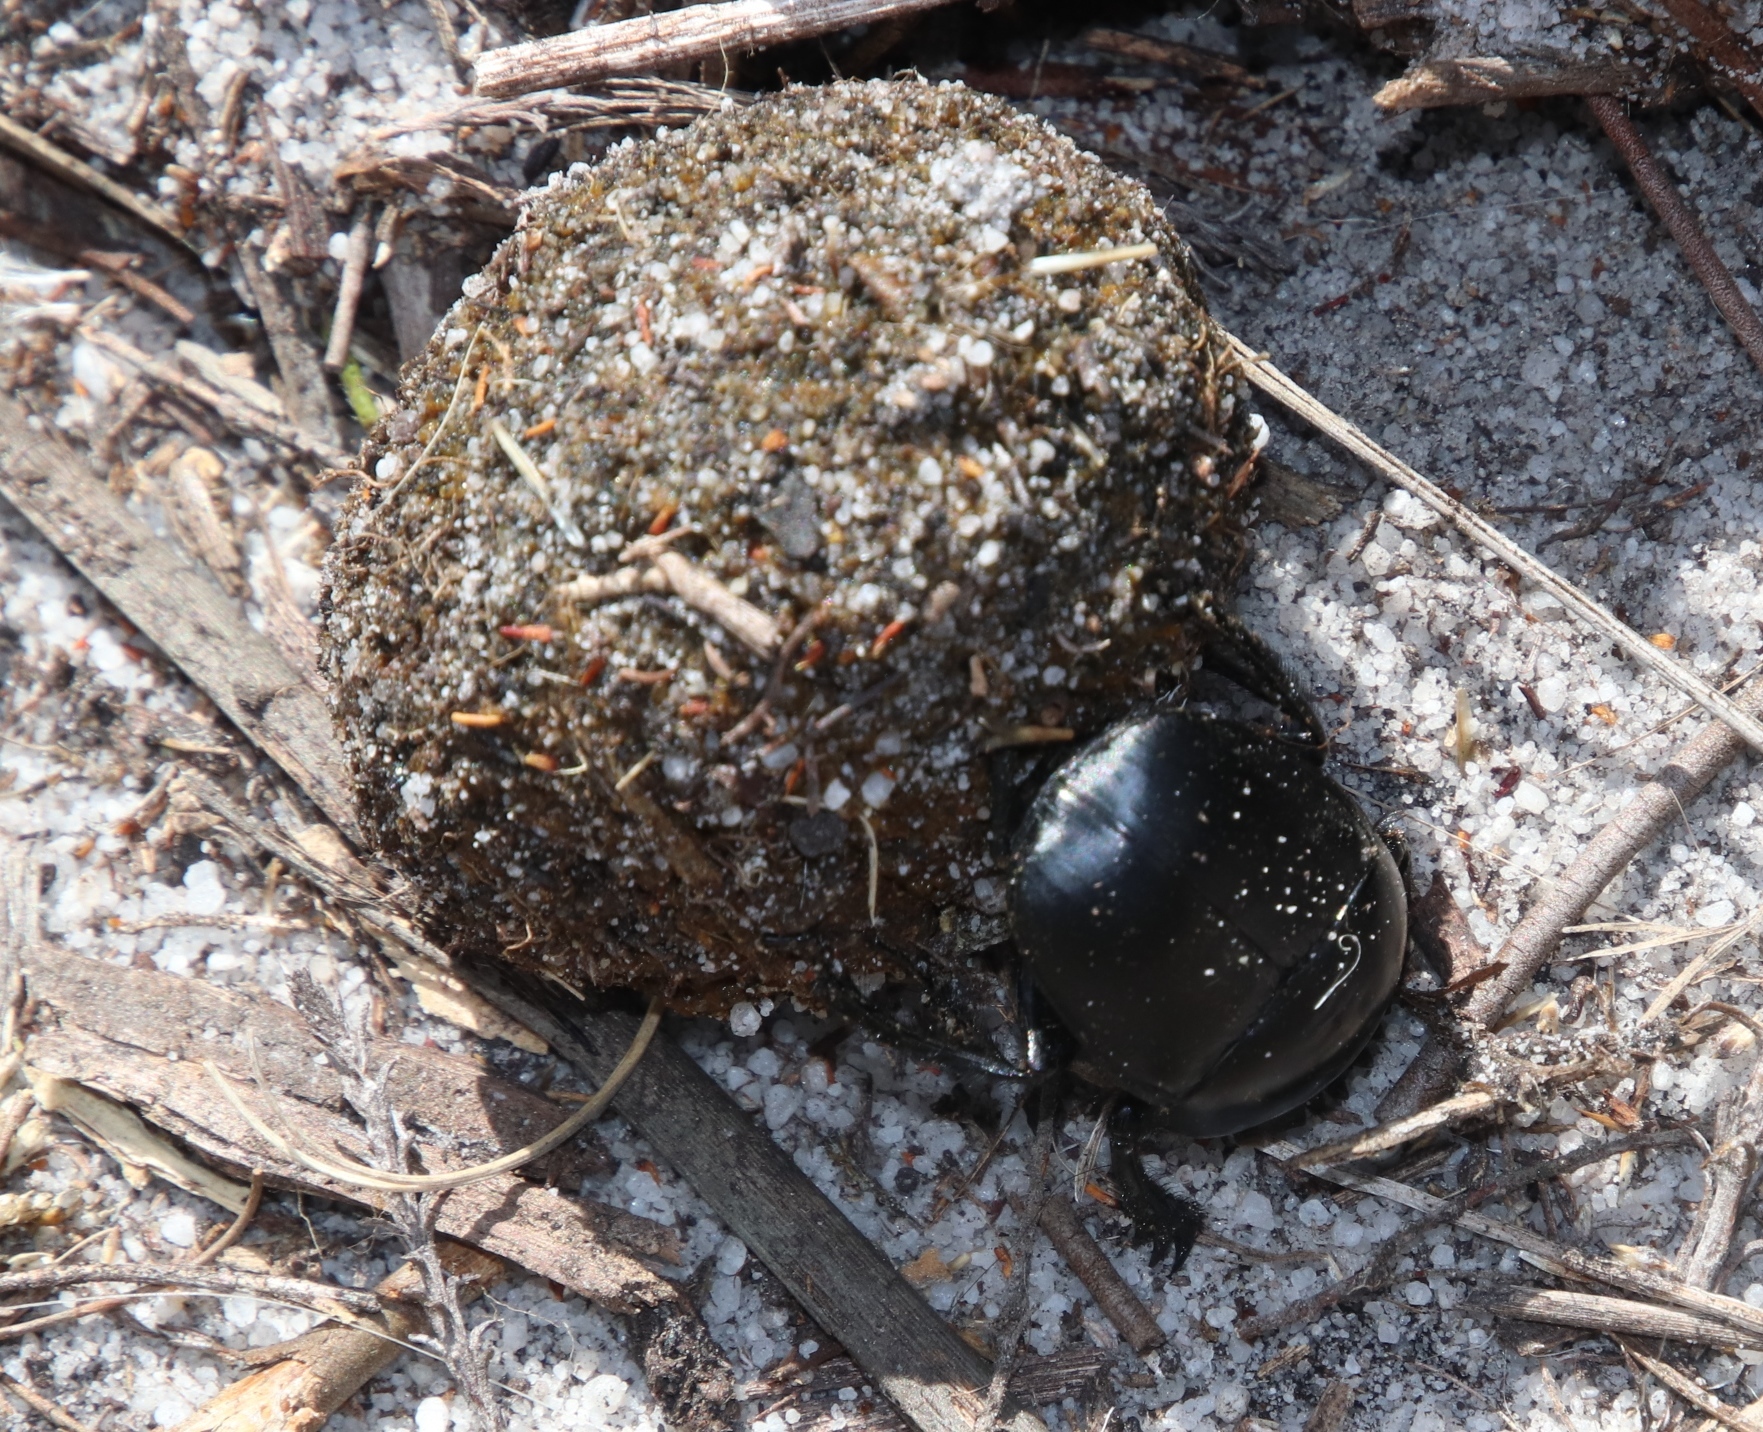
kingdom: Animalia
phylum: Arthropoda
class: Insecta
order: Coleoptera
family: Scarabaeidae
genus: Scarabaeus
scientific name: Scarabaeus suri
